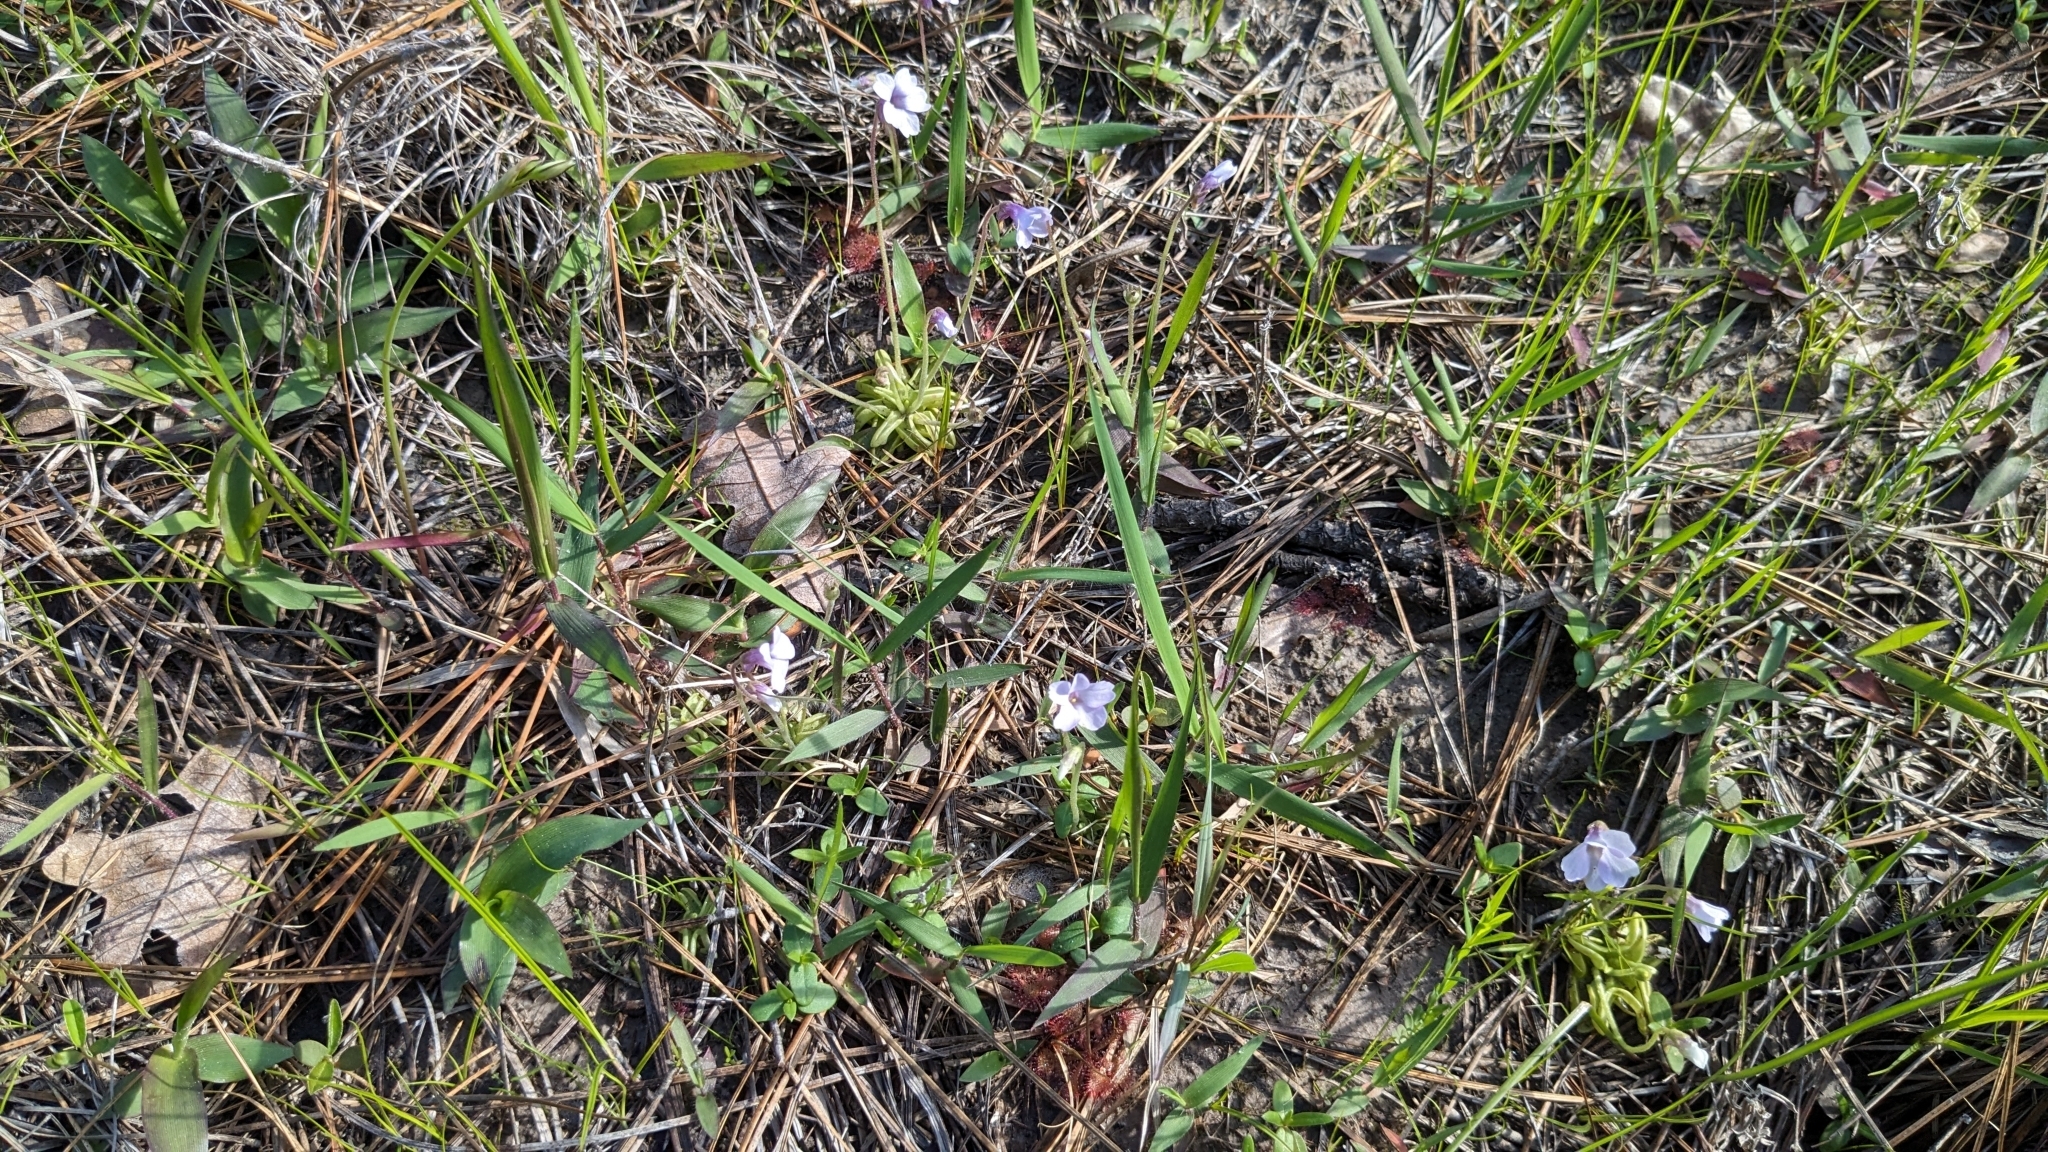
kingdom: Plantae
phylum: Tracheophyta
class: Magnoliopsida
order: Lamiales
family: Lentibulariaceae
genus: Pinguicula
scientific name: Pinguicula pumila
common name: Small butterwort
